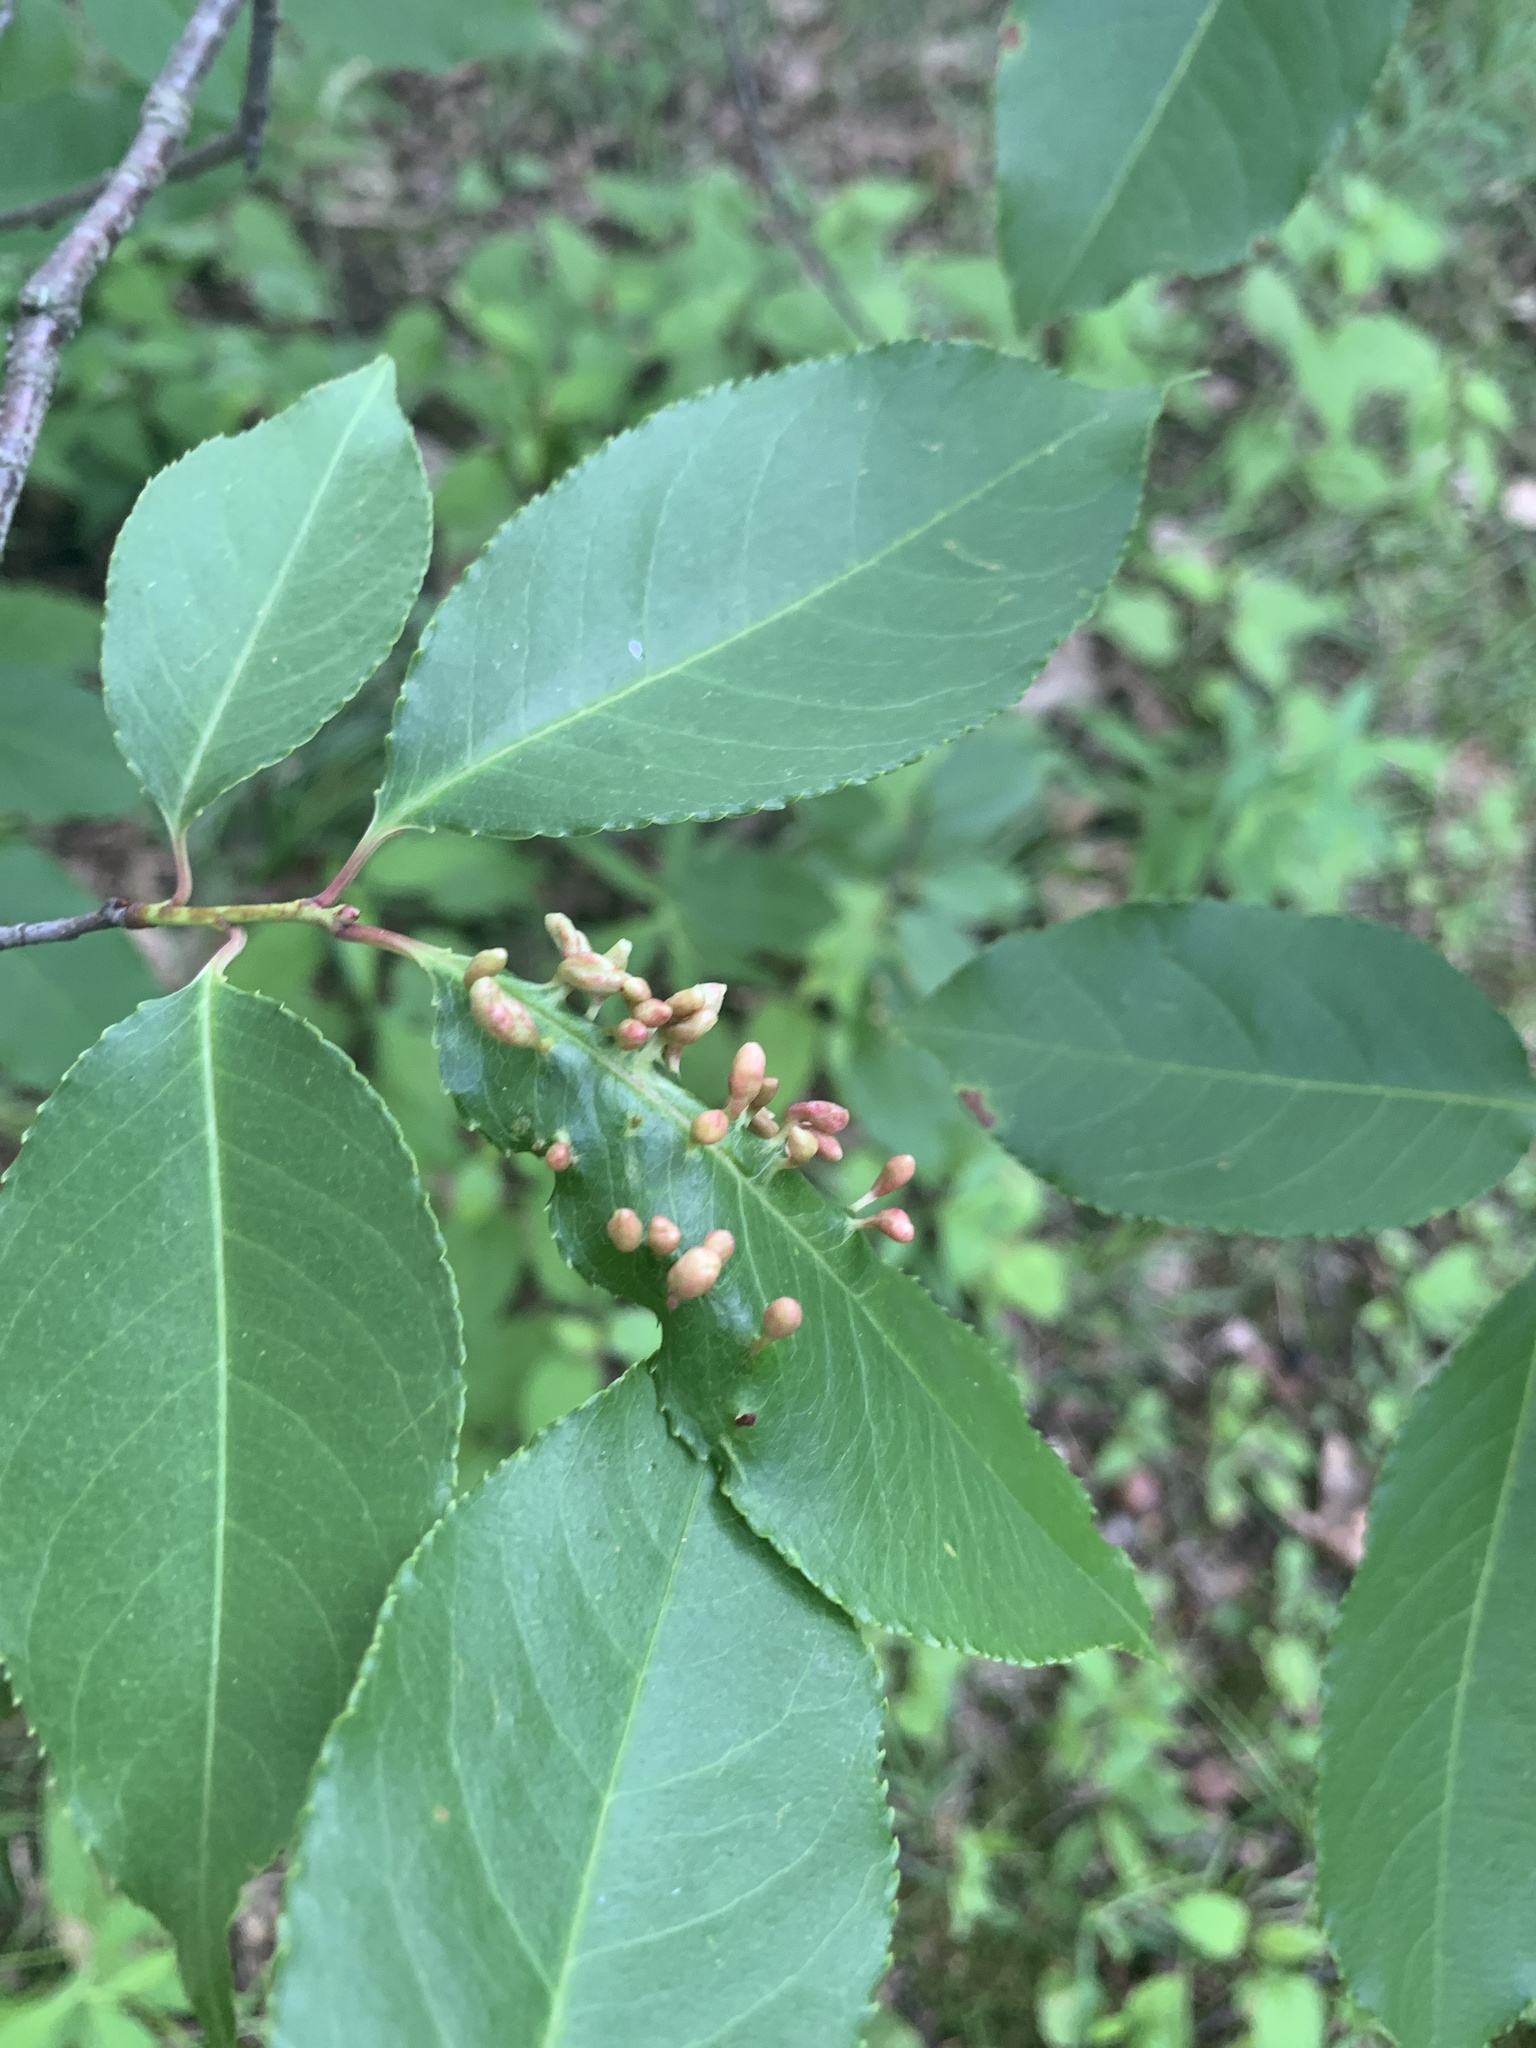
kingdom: Animalia
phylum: Arthropoda
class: Arachnida
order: Trombidiformes
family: Eriophyidae
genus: Eriophyes
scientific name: Eriophyes
